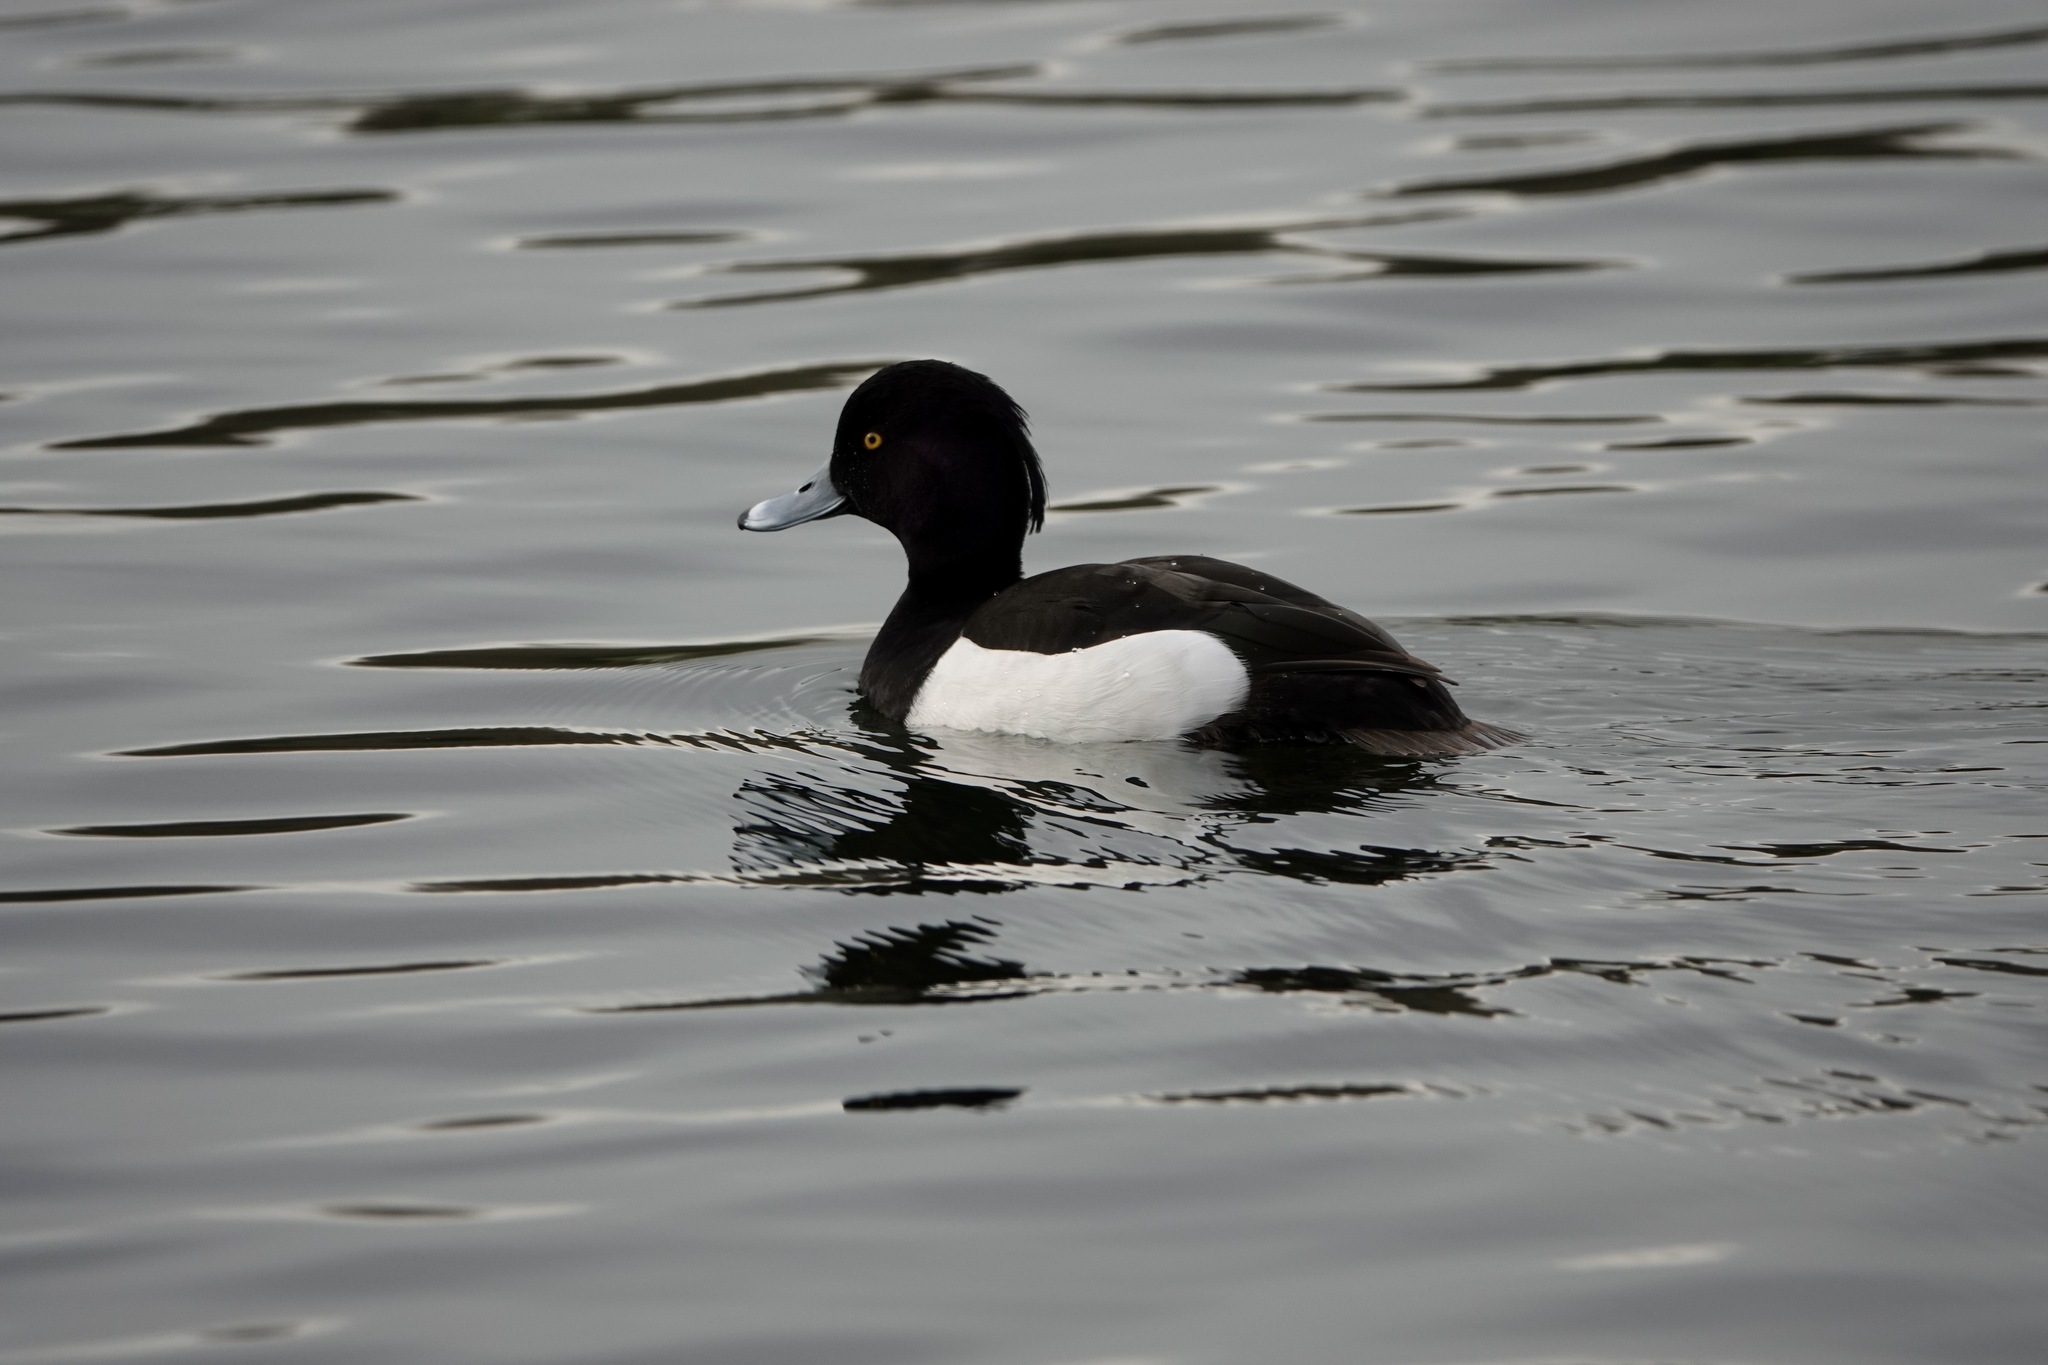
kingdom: Animalia
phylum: Chordata
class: Aves
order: Anseriformes
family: Anatidae
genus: Aythya
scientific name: Aythya fuligula
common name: Tufted duck
